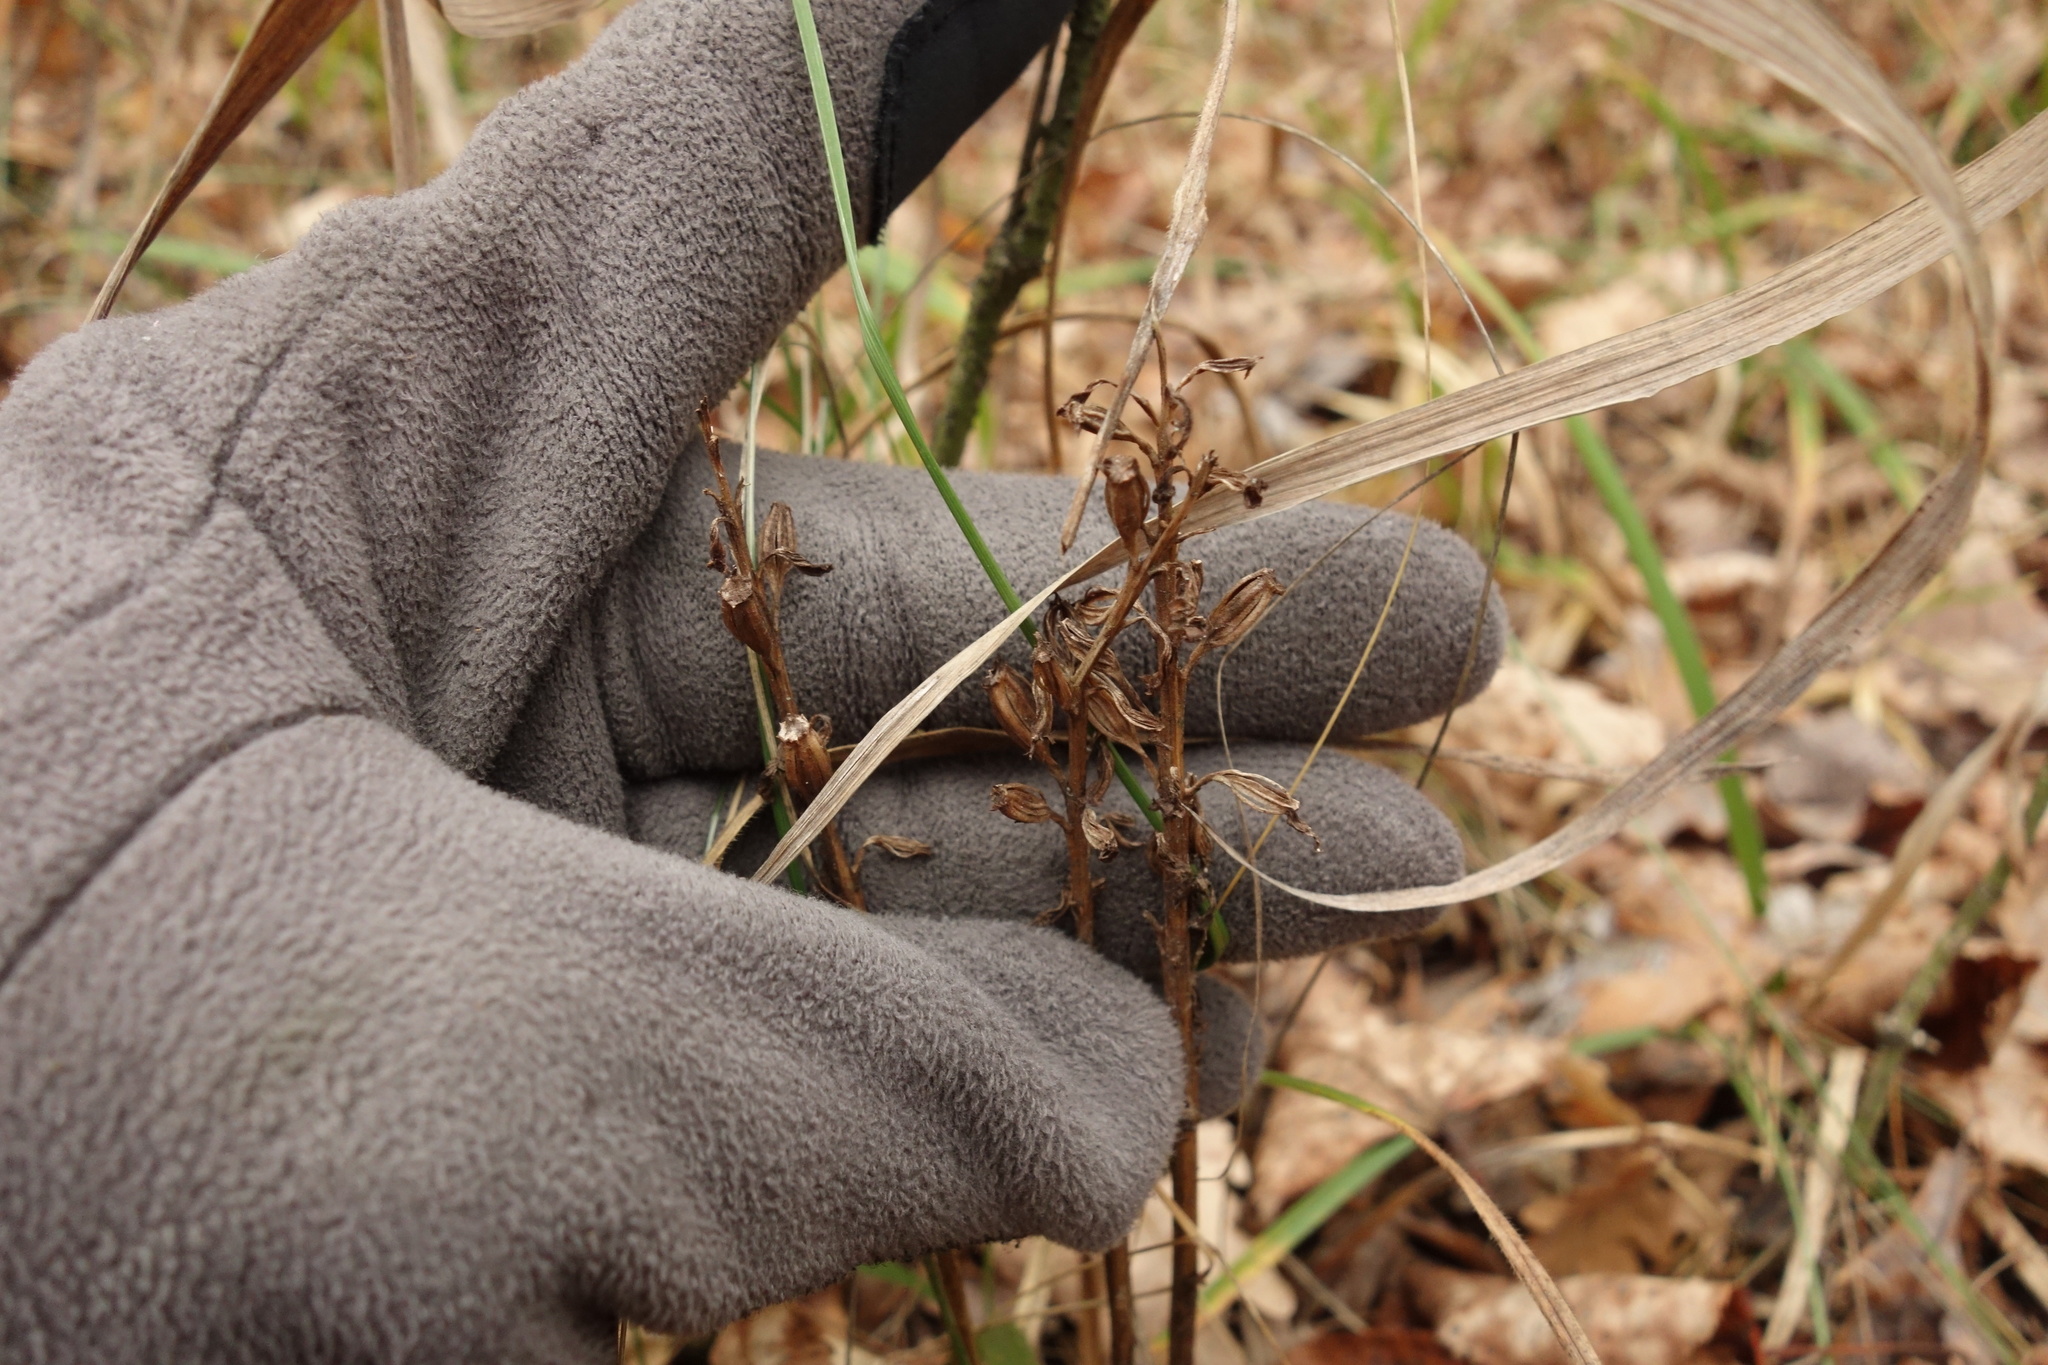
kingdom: Plantae
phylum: Tracheophyta
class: Liliopsida
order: Asparagales
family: Orchidaceae
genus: Neottia
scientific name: Neottia nidus-avis
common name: Bird's-nest orchid
